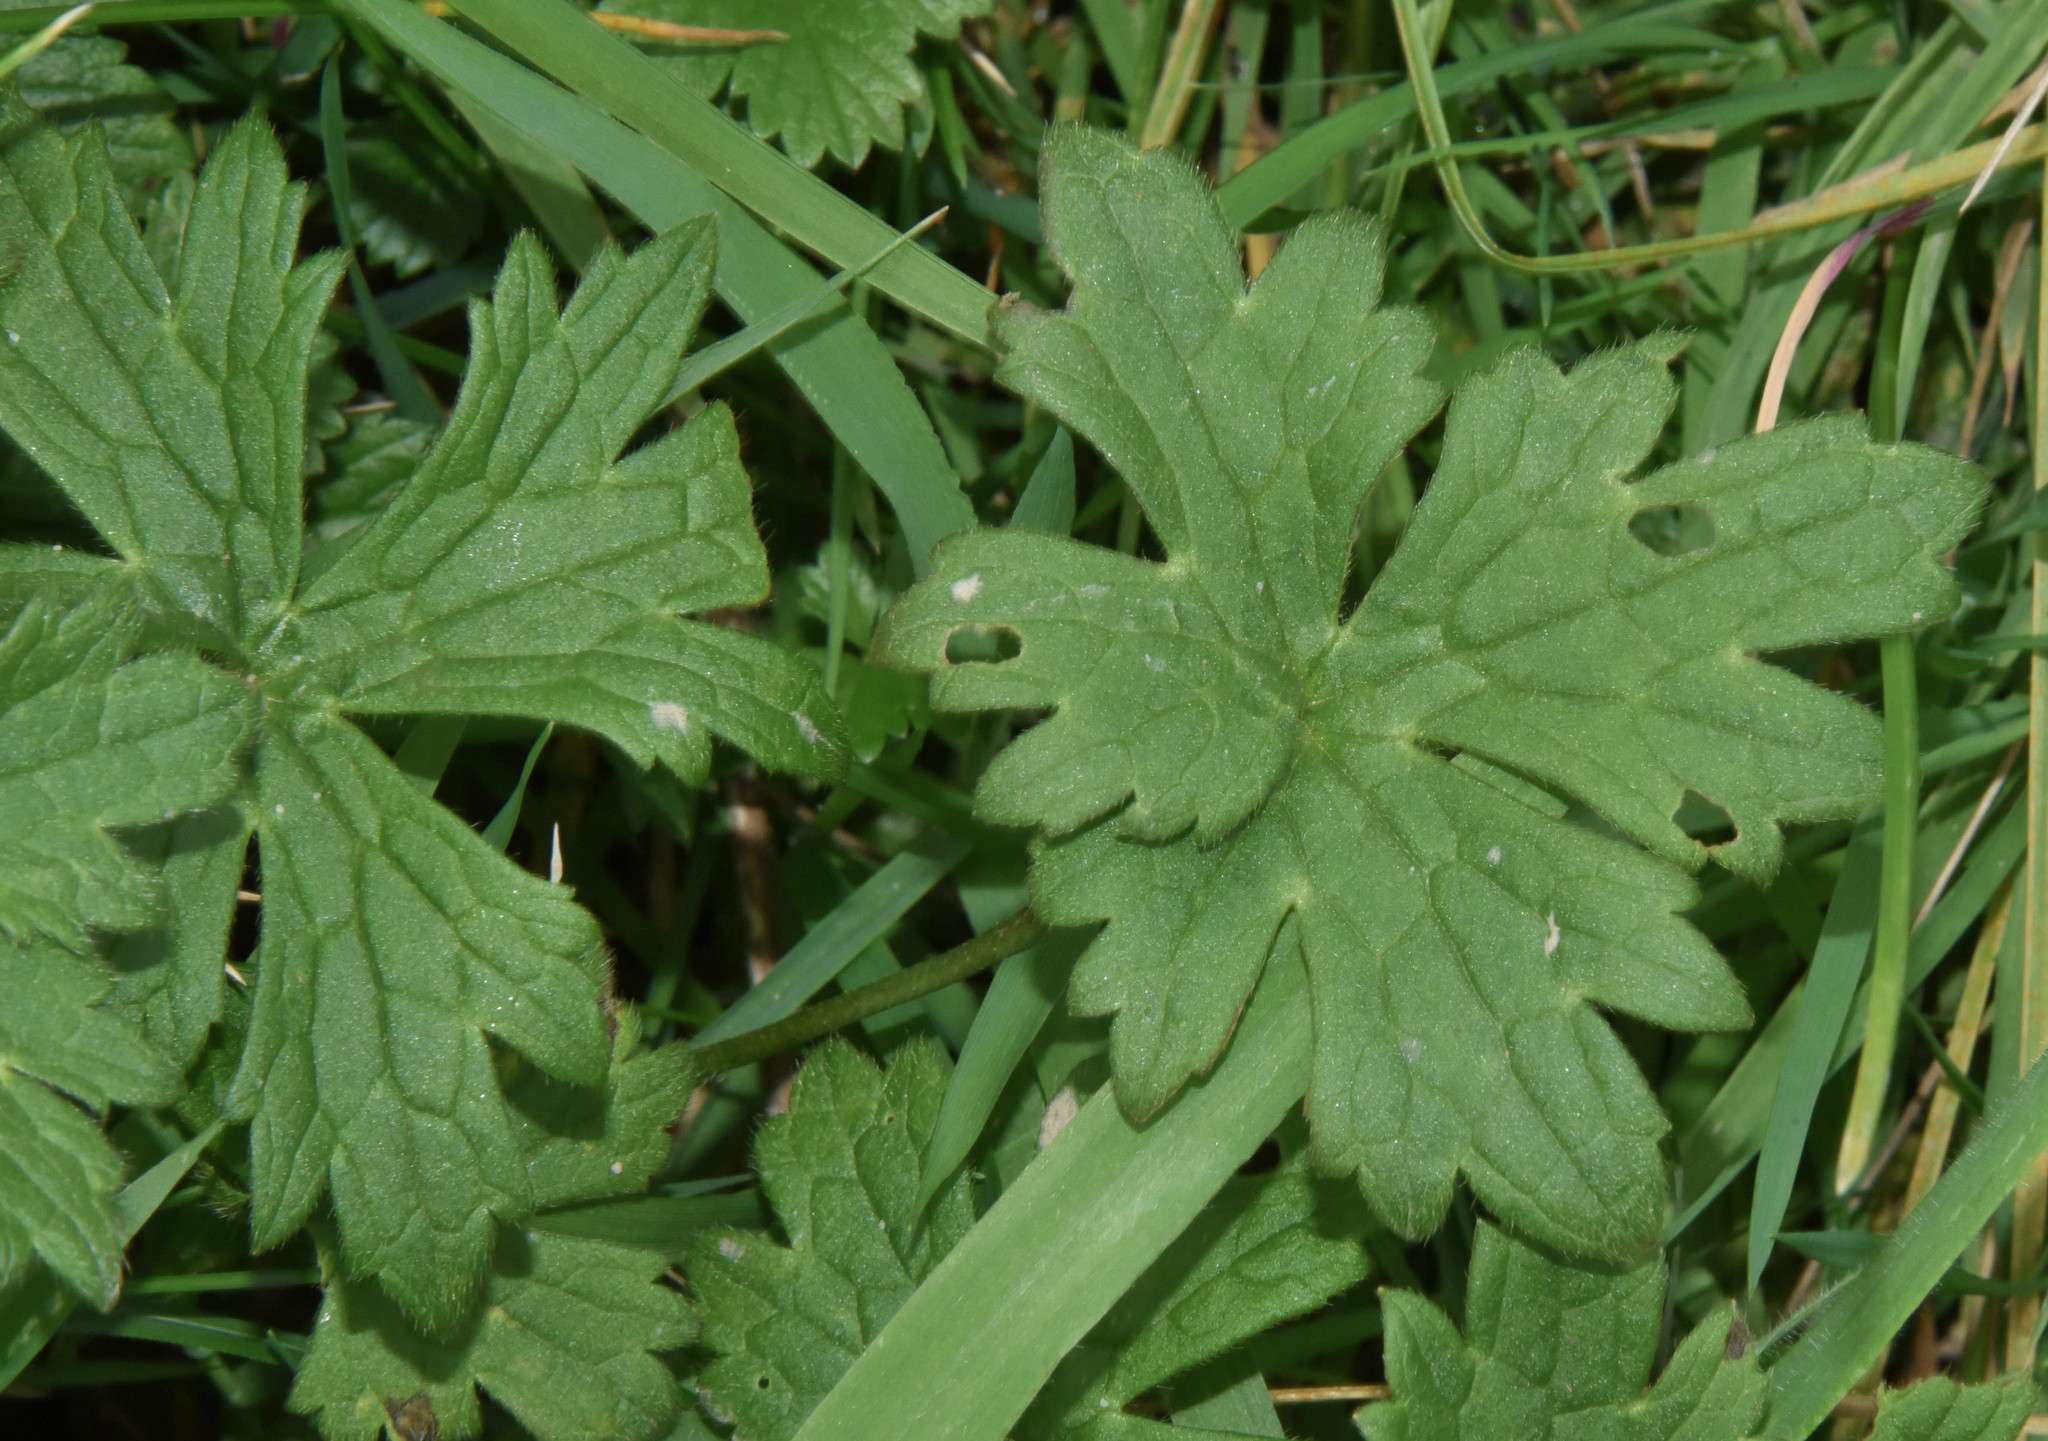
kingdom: Plantae
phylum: Tracheophyta
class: Magnoliopsida
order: Ranunculales
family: Ranunculaceae
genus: Ranunculus
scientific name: Ranunculus repens
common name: Creeping buttercup
